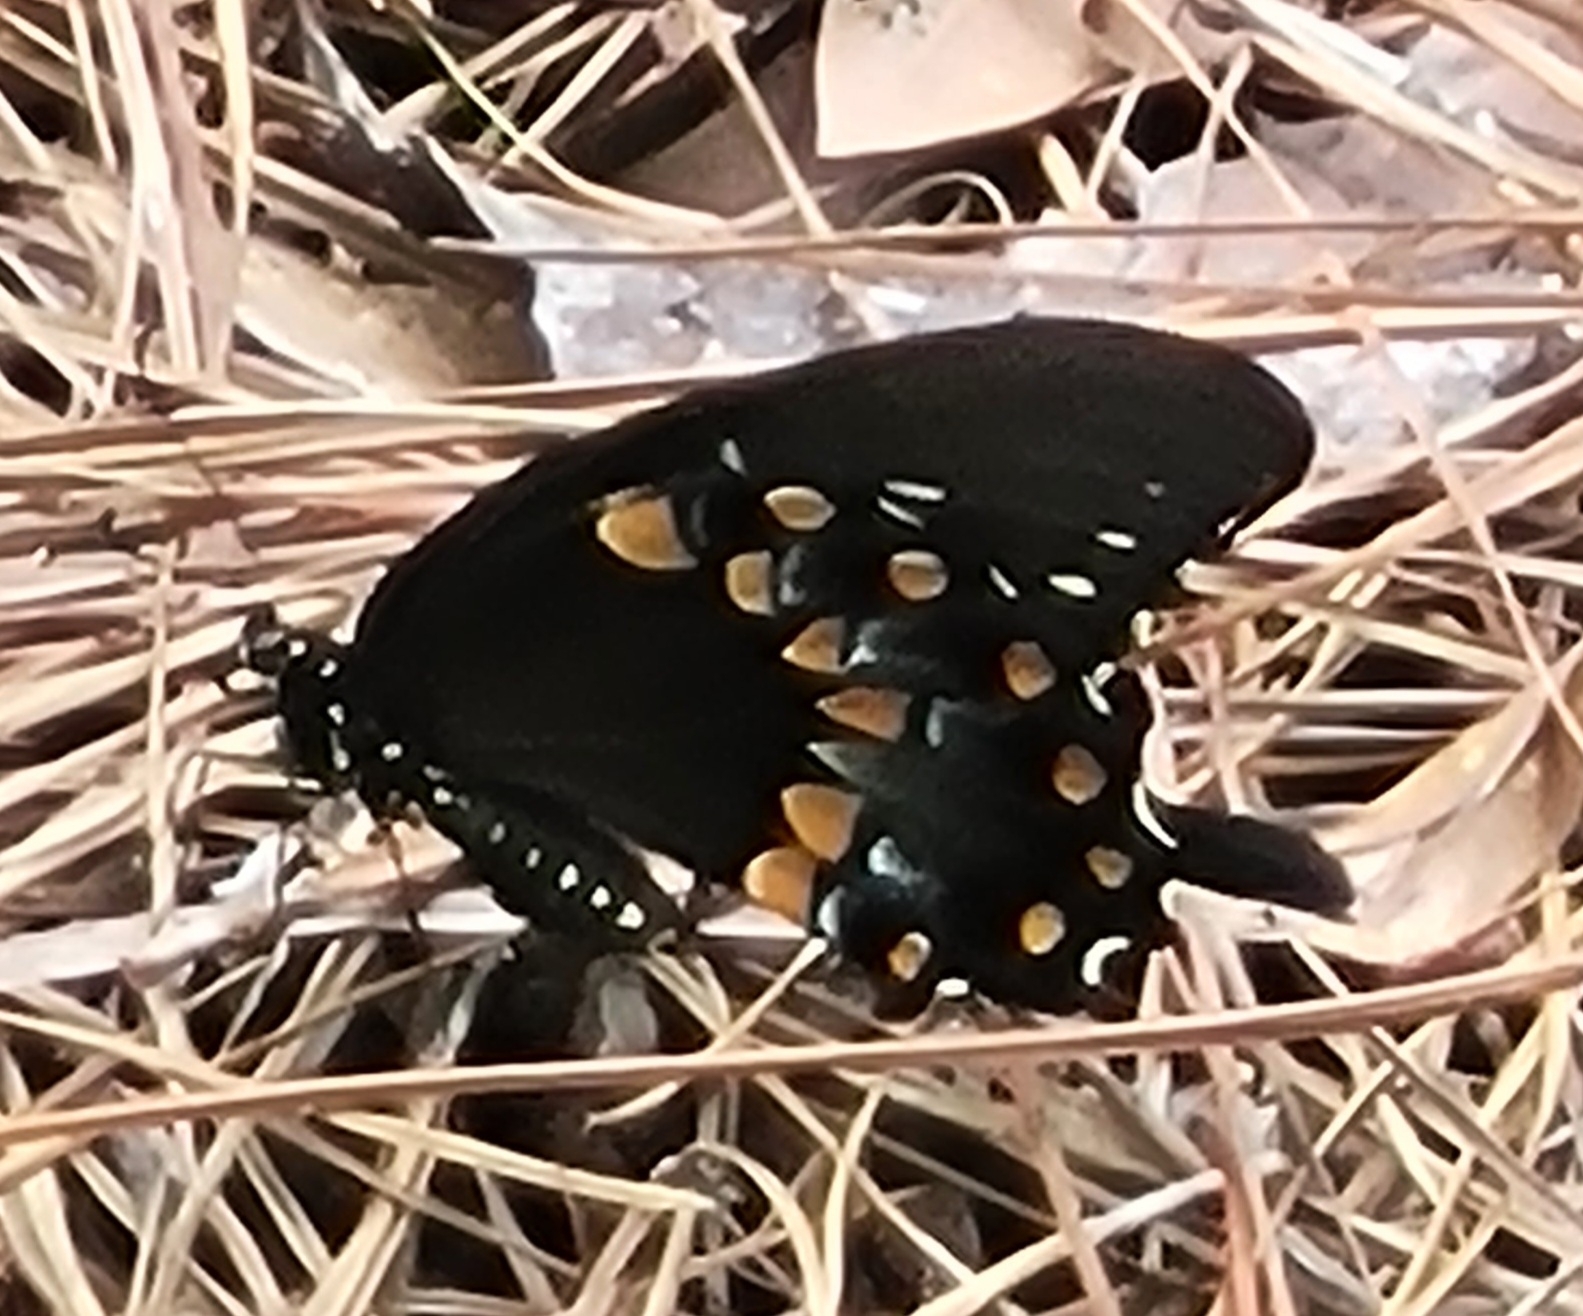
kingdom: Animalia
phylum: Arthropoda
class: Insecta
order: Lepidoptera
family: Papilionidae
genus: Papilio
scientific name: Papilio troilus
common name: Spicebush swallowtail
